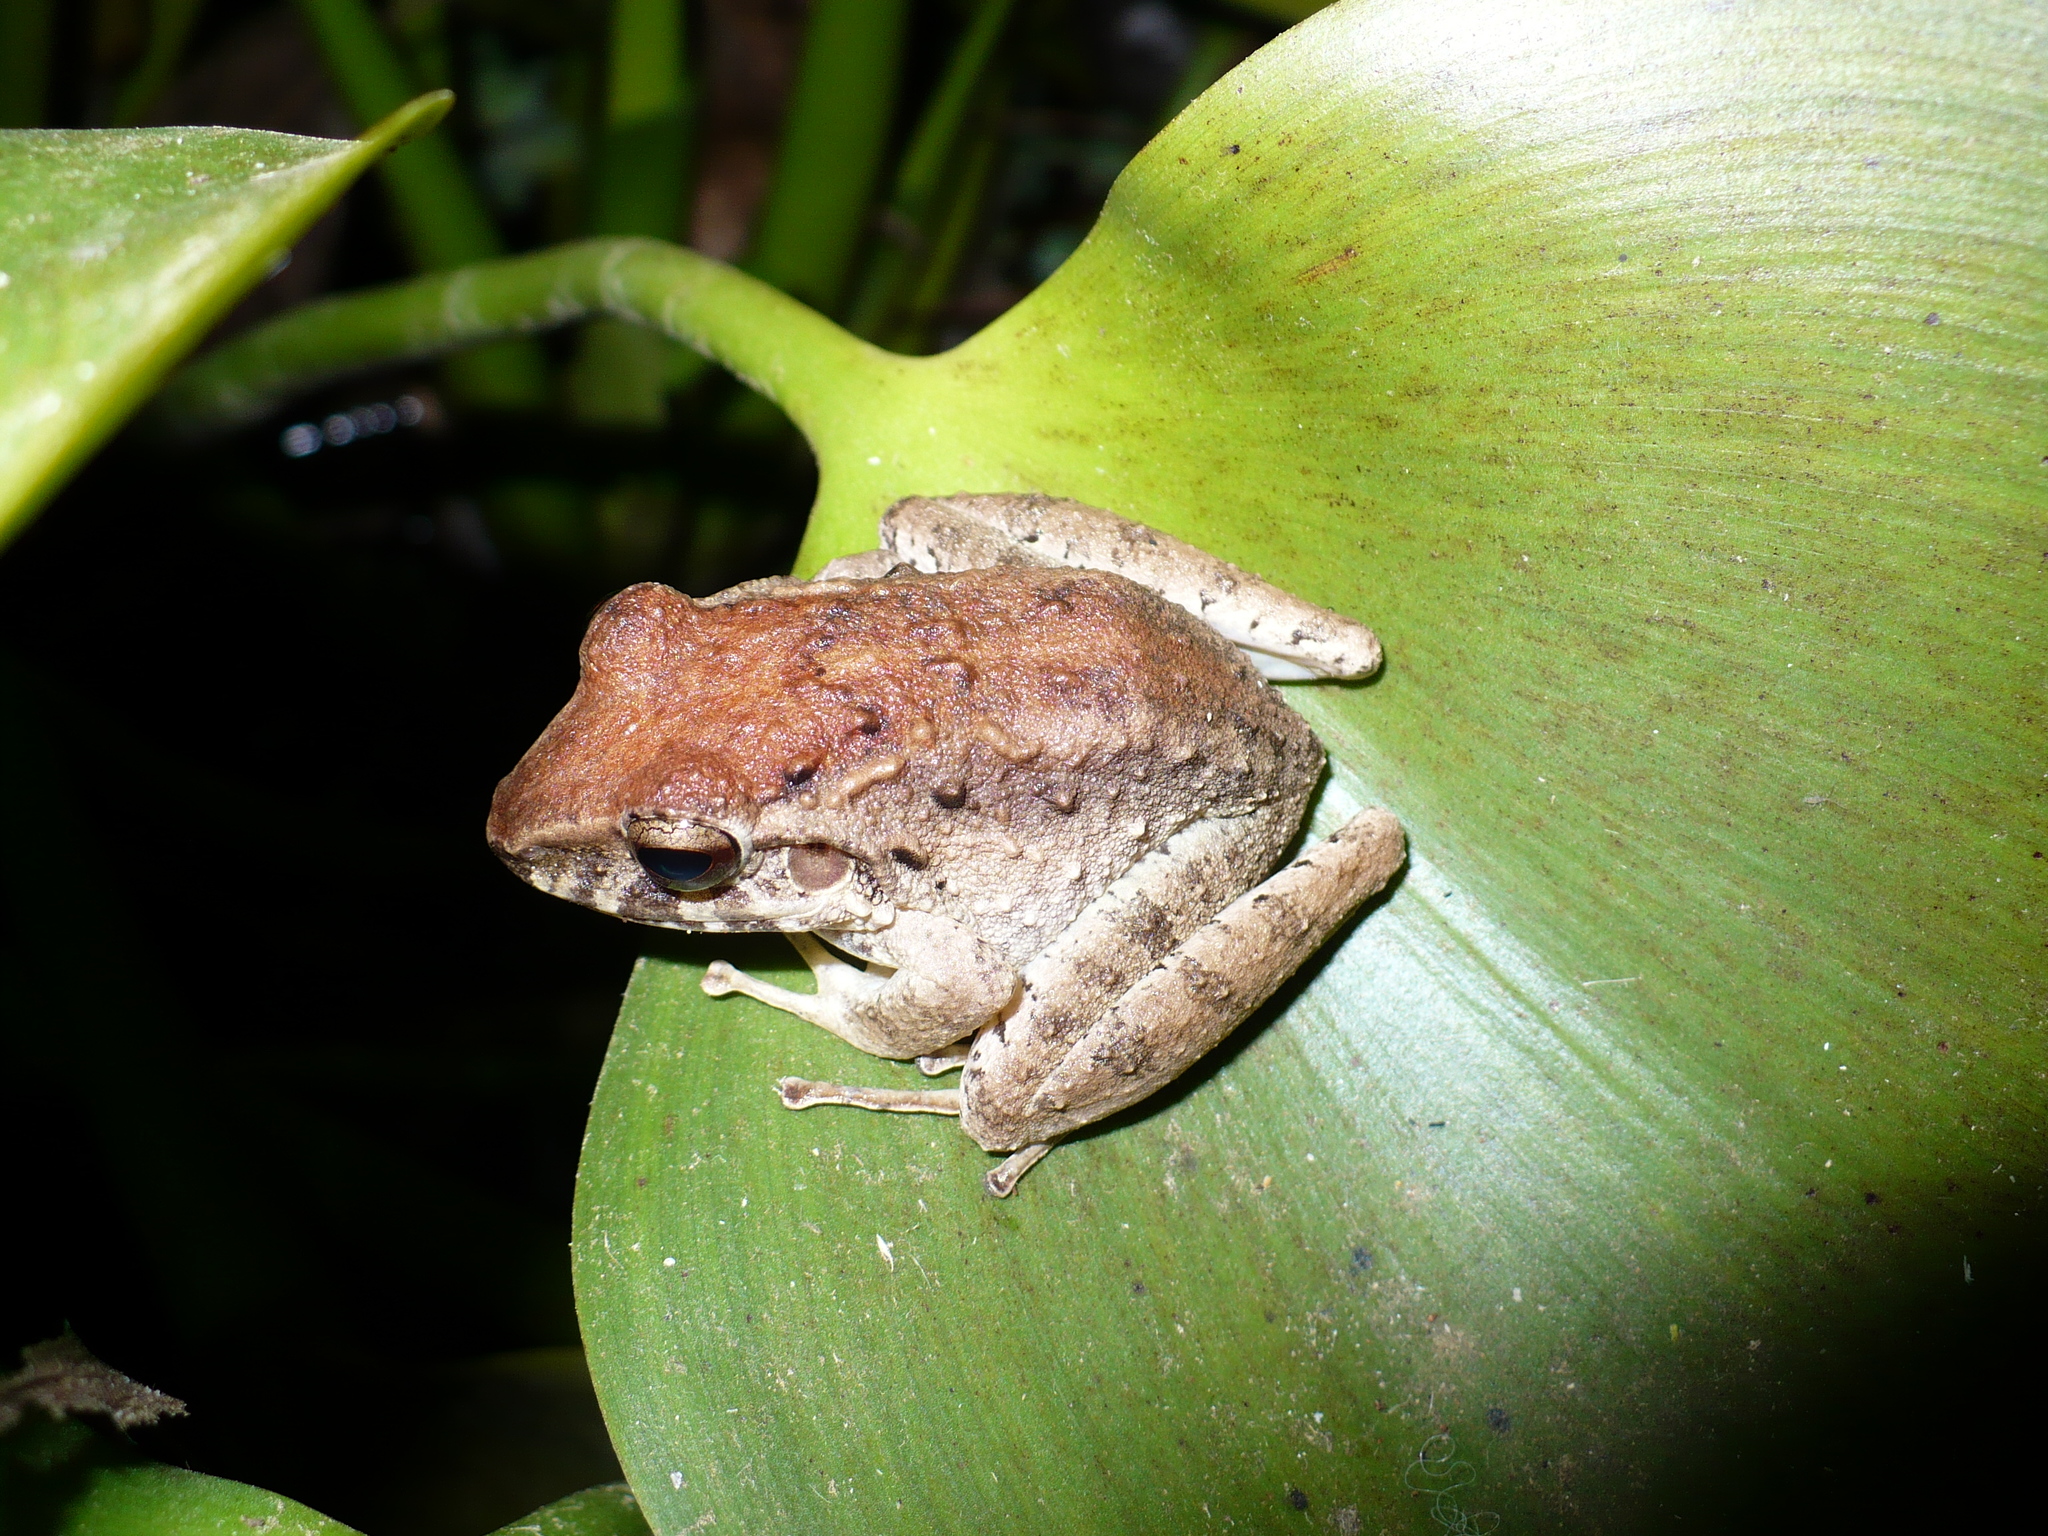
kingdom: Animalia
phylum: Chordata
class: Amphibia
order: Anura
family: Craugastoridae
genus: Craugastor
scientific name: Craugastor fitzingeri
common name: Fitzinger's robber frog
